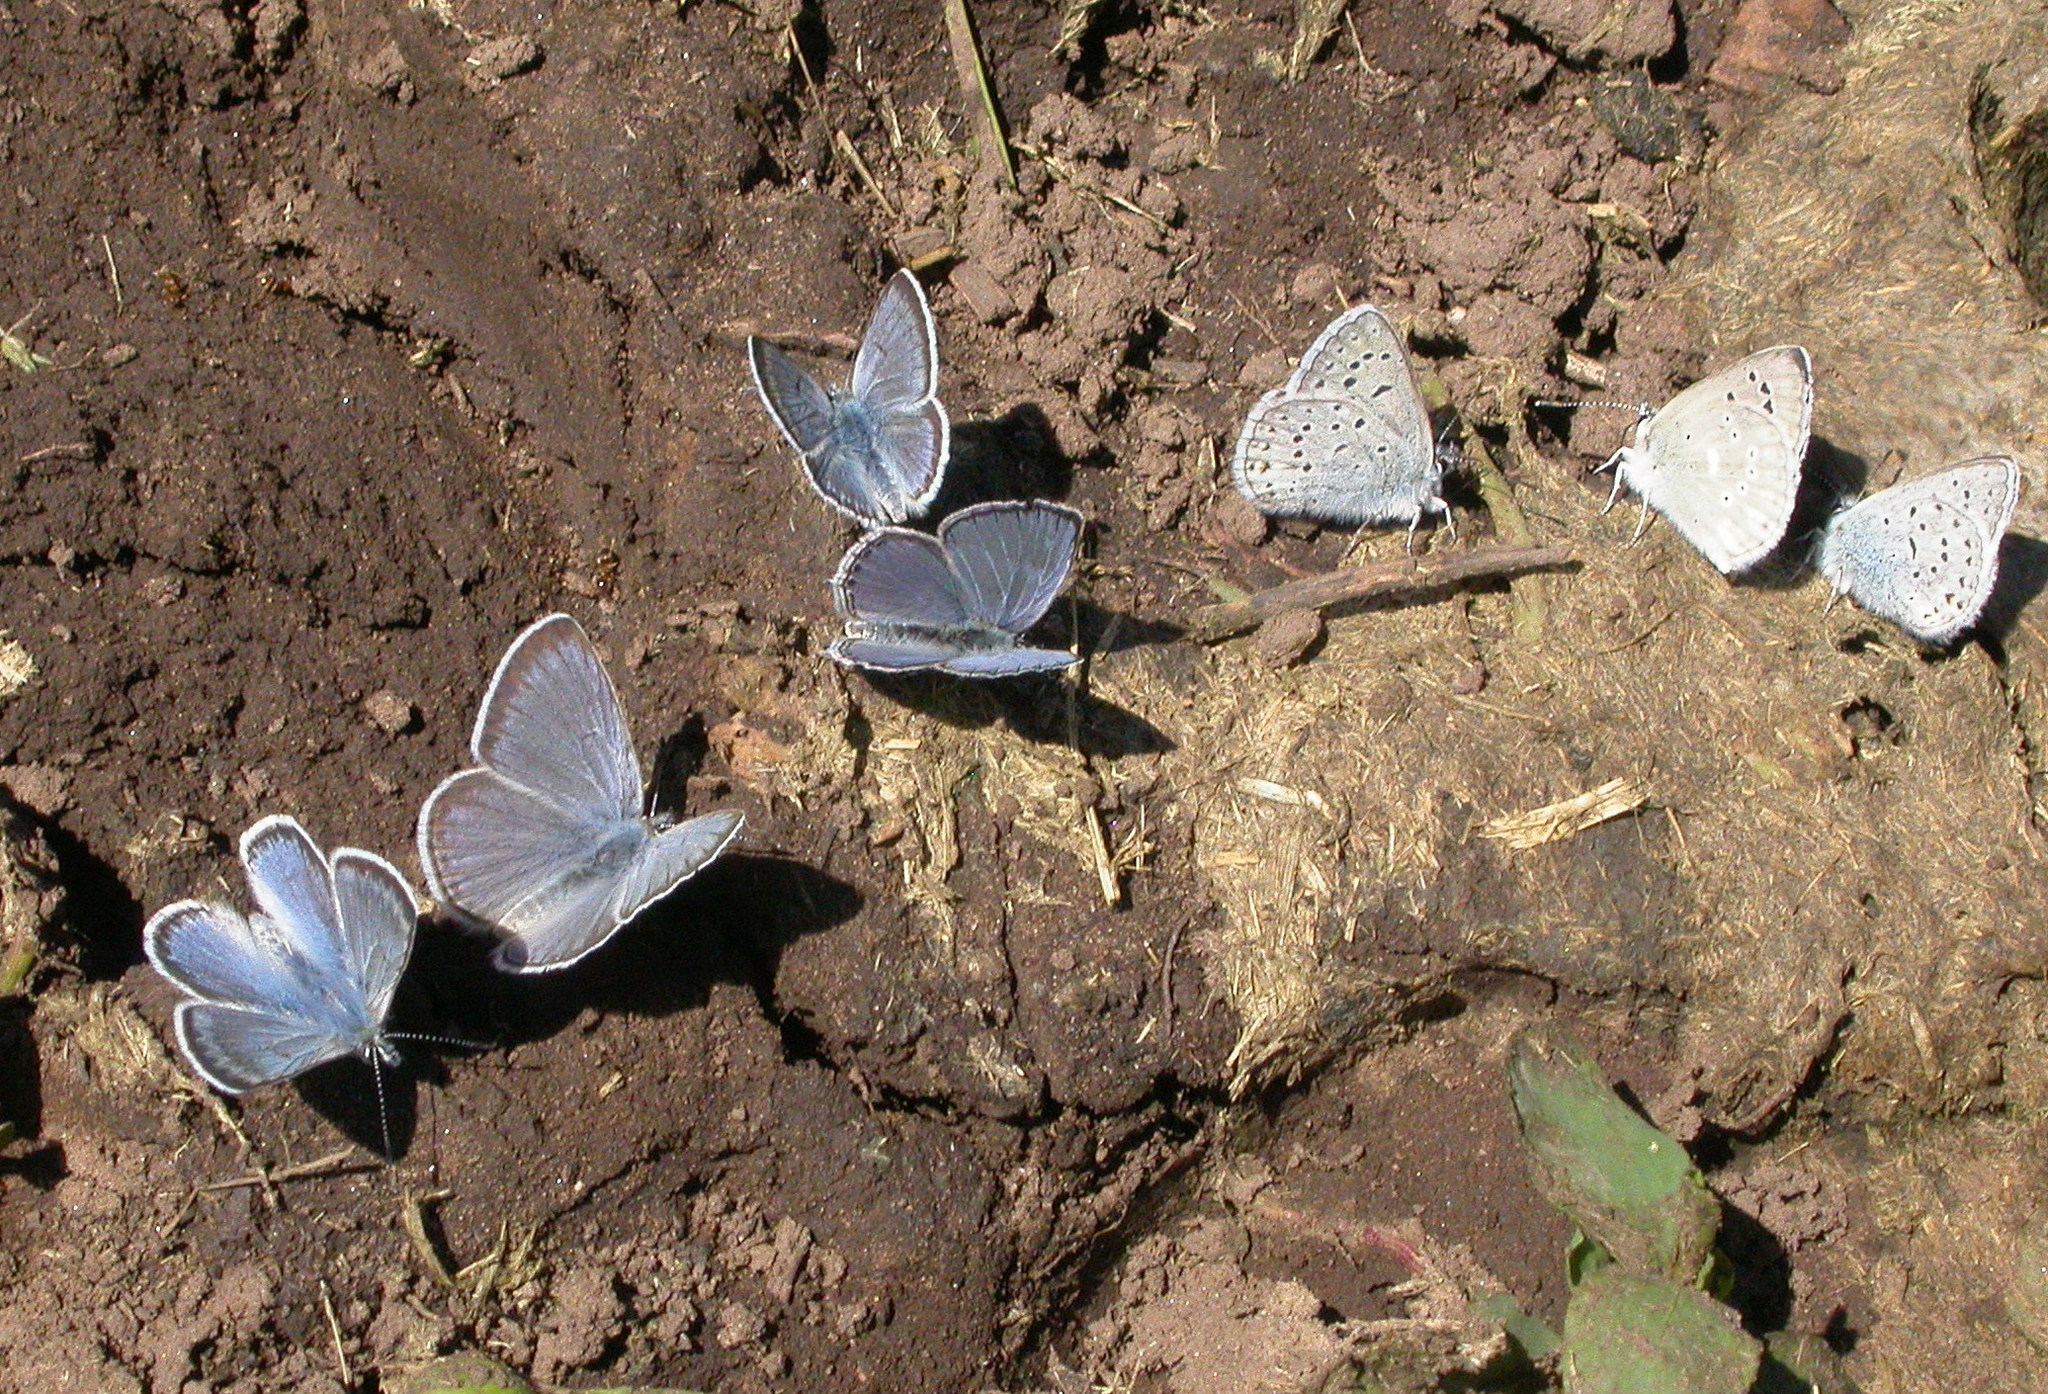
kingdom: Animalia
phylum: Arthropoda
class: Insecta
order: Lepidoptera
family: Lycaenidae
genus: Icaricia
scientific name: Icaricia saepiolus
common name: Greenish blue
